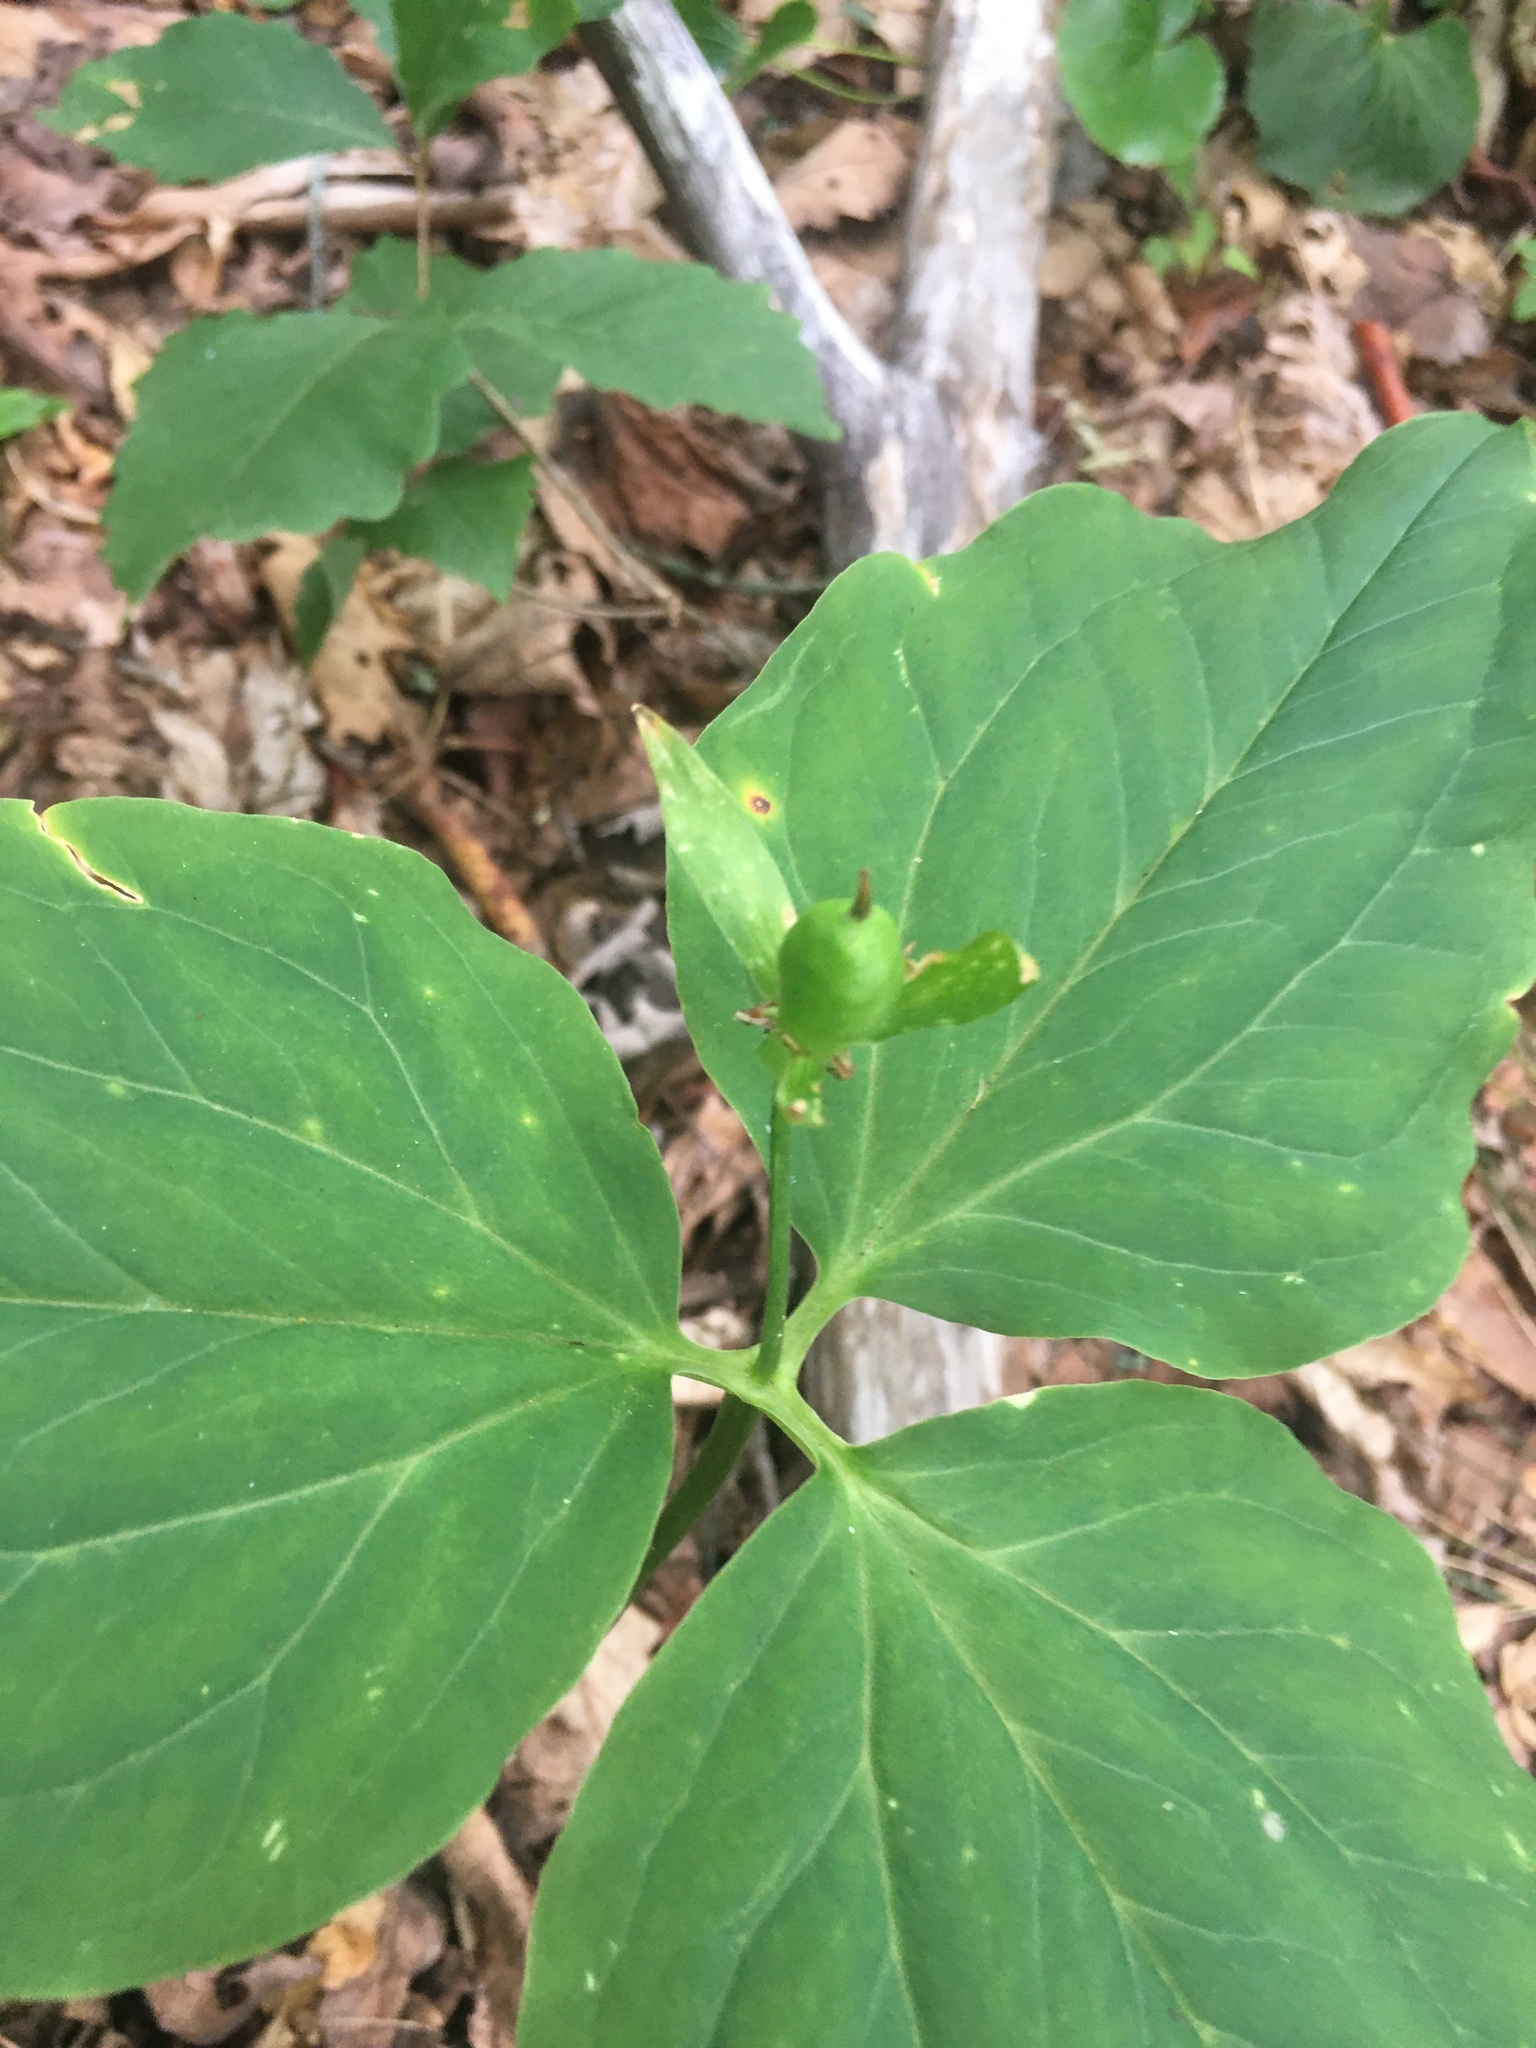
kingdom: Plantae
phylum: Tracheophyta
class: Liliopsida
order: Liliales
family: Melanthiaceae
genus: Trillium
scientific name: Trillium undulatum
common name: Paint trillium
